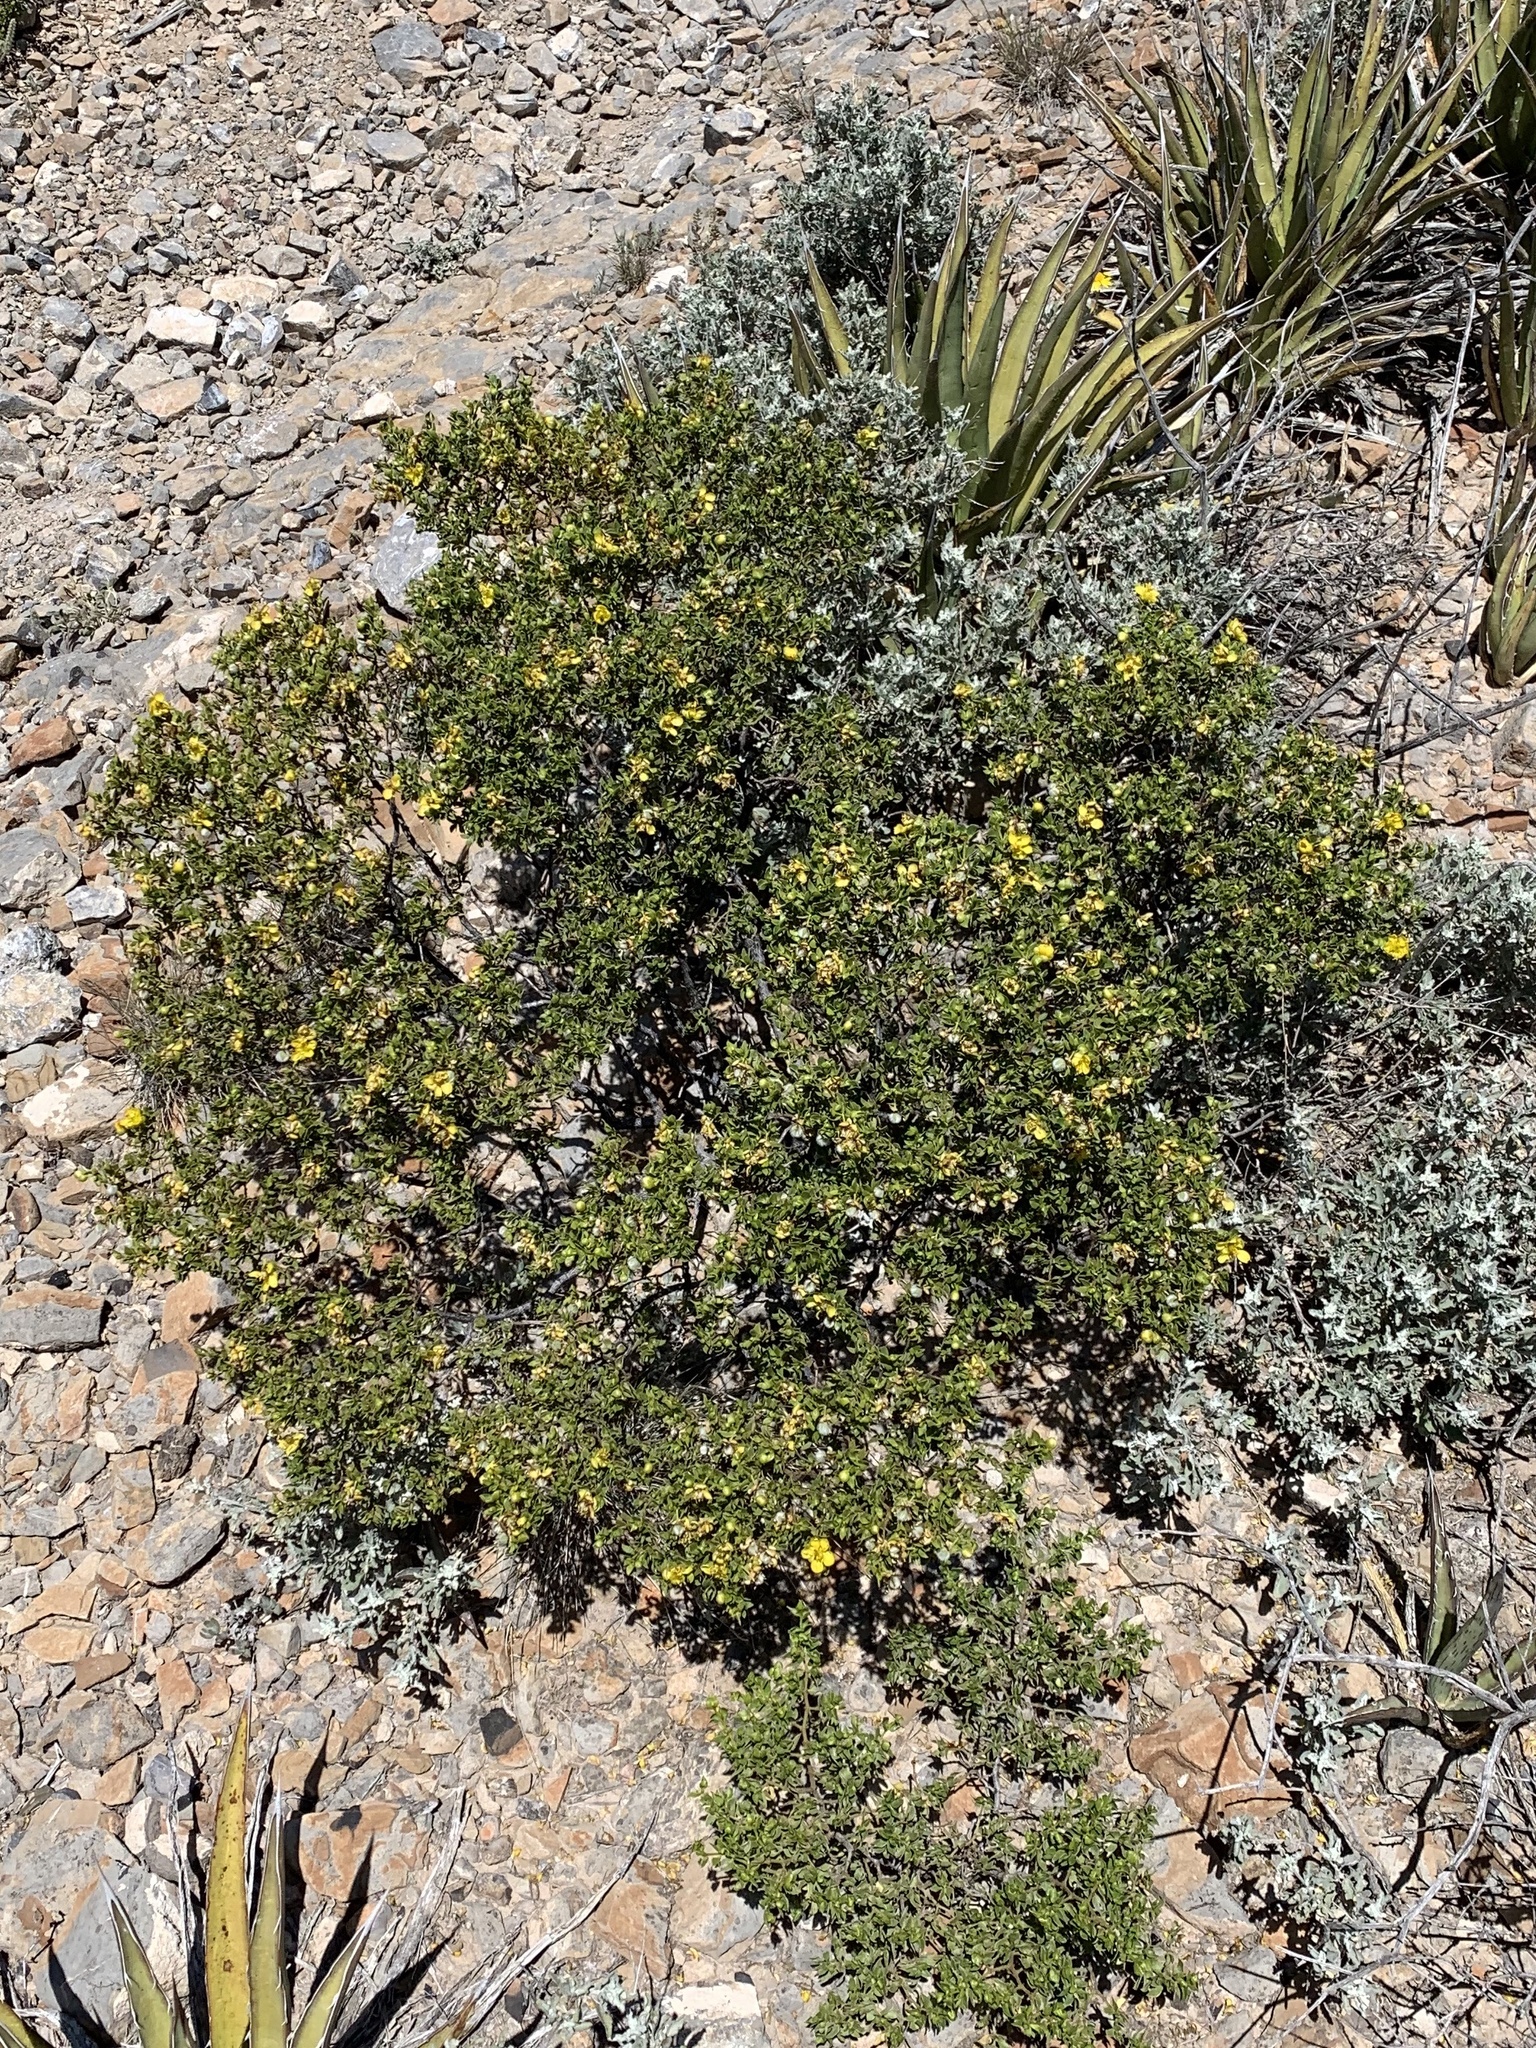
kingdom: Plantae
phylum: Tracheophyta
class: Magnoliopsida
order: Zygophyllales
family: Zygophyllaceae
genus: Larrea
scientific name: Larrea tridentata
